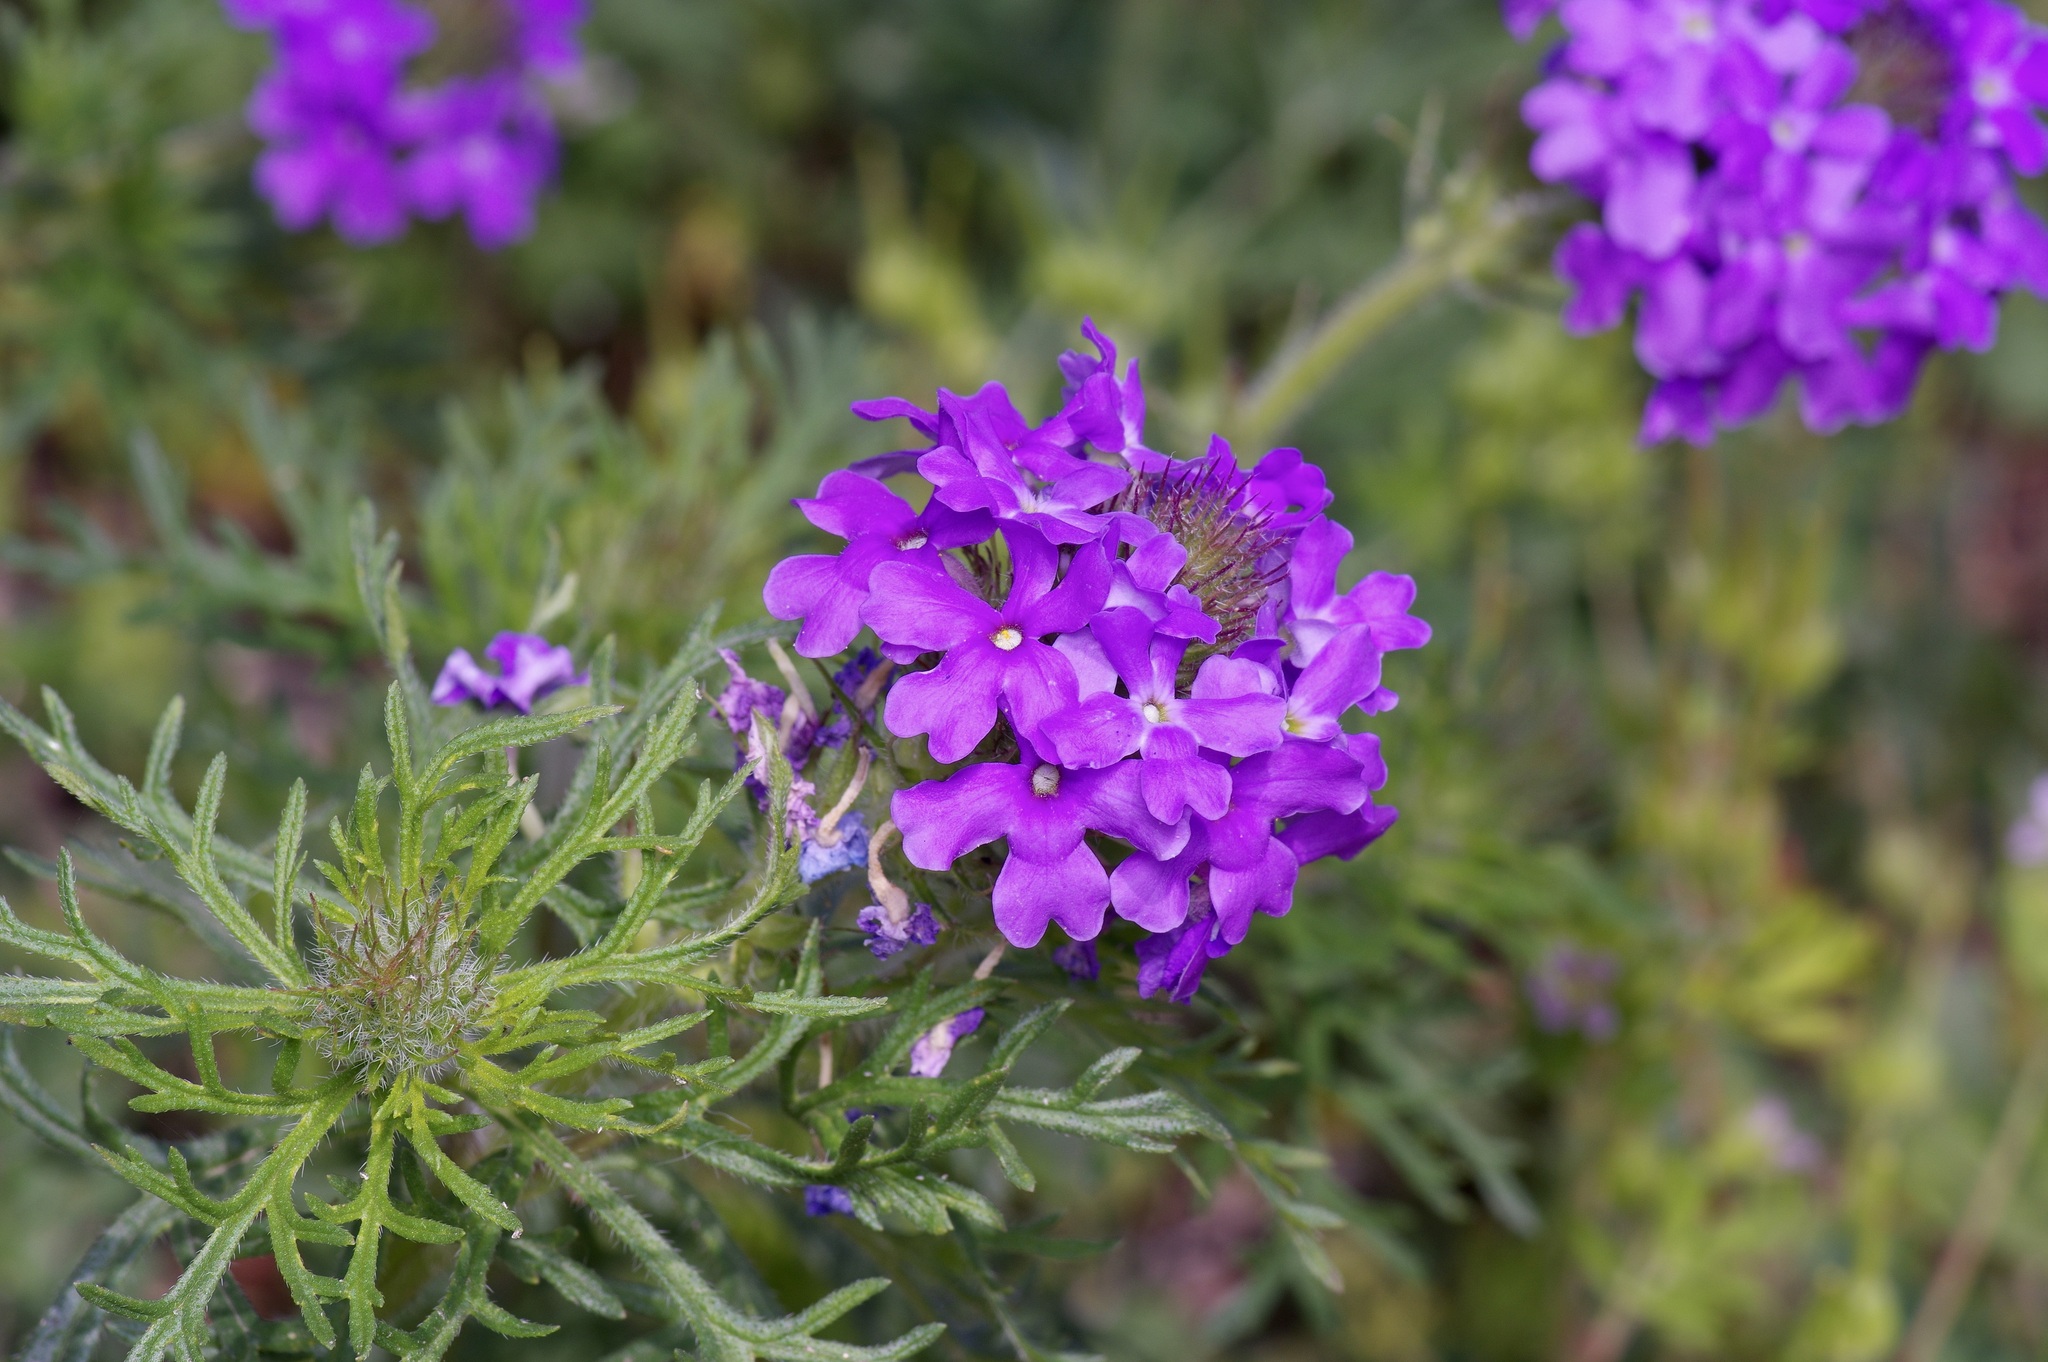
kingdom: Plantae
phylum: Tracheophyta
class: Magnoliopsida
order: Lamiales
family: Verbenaceae
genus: Verbena
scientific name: Verbena bipinnatifida
